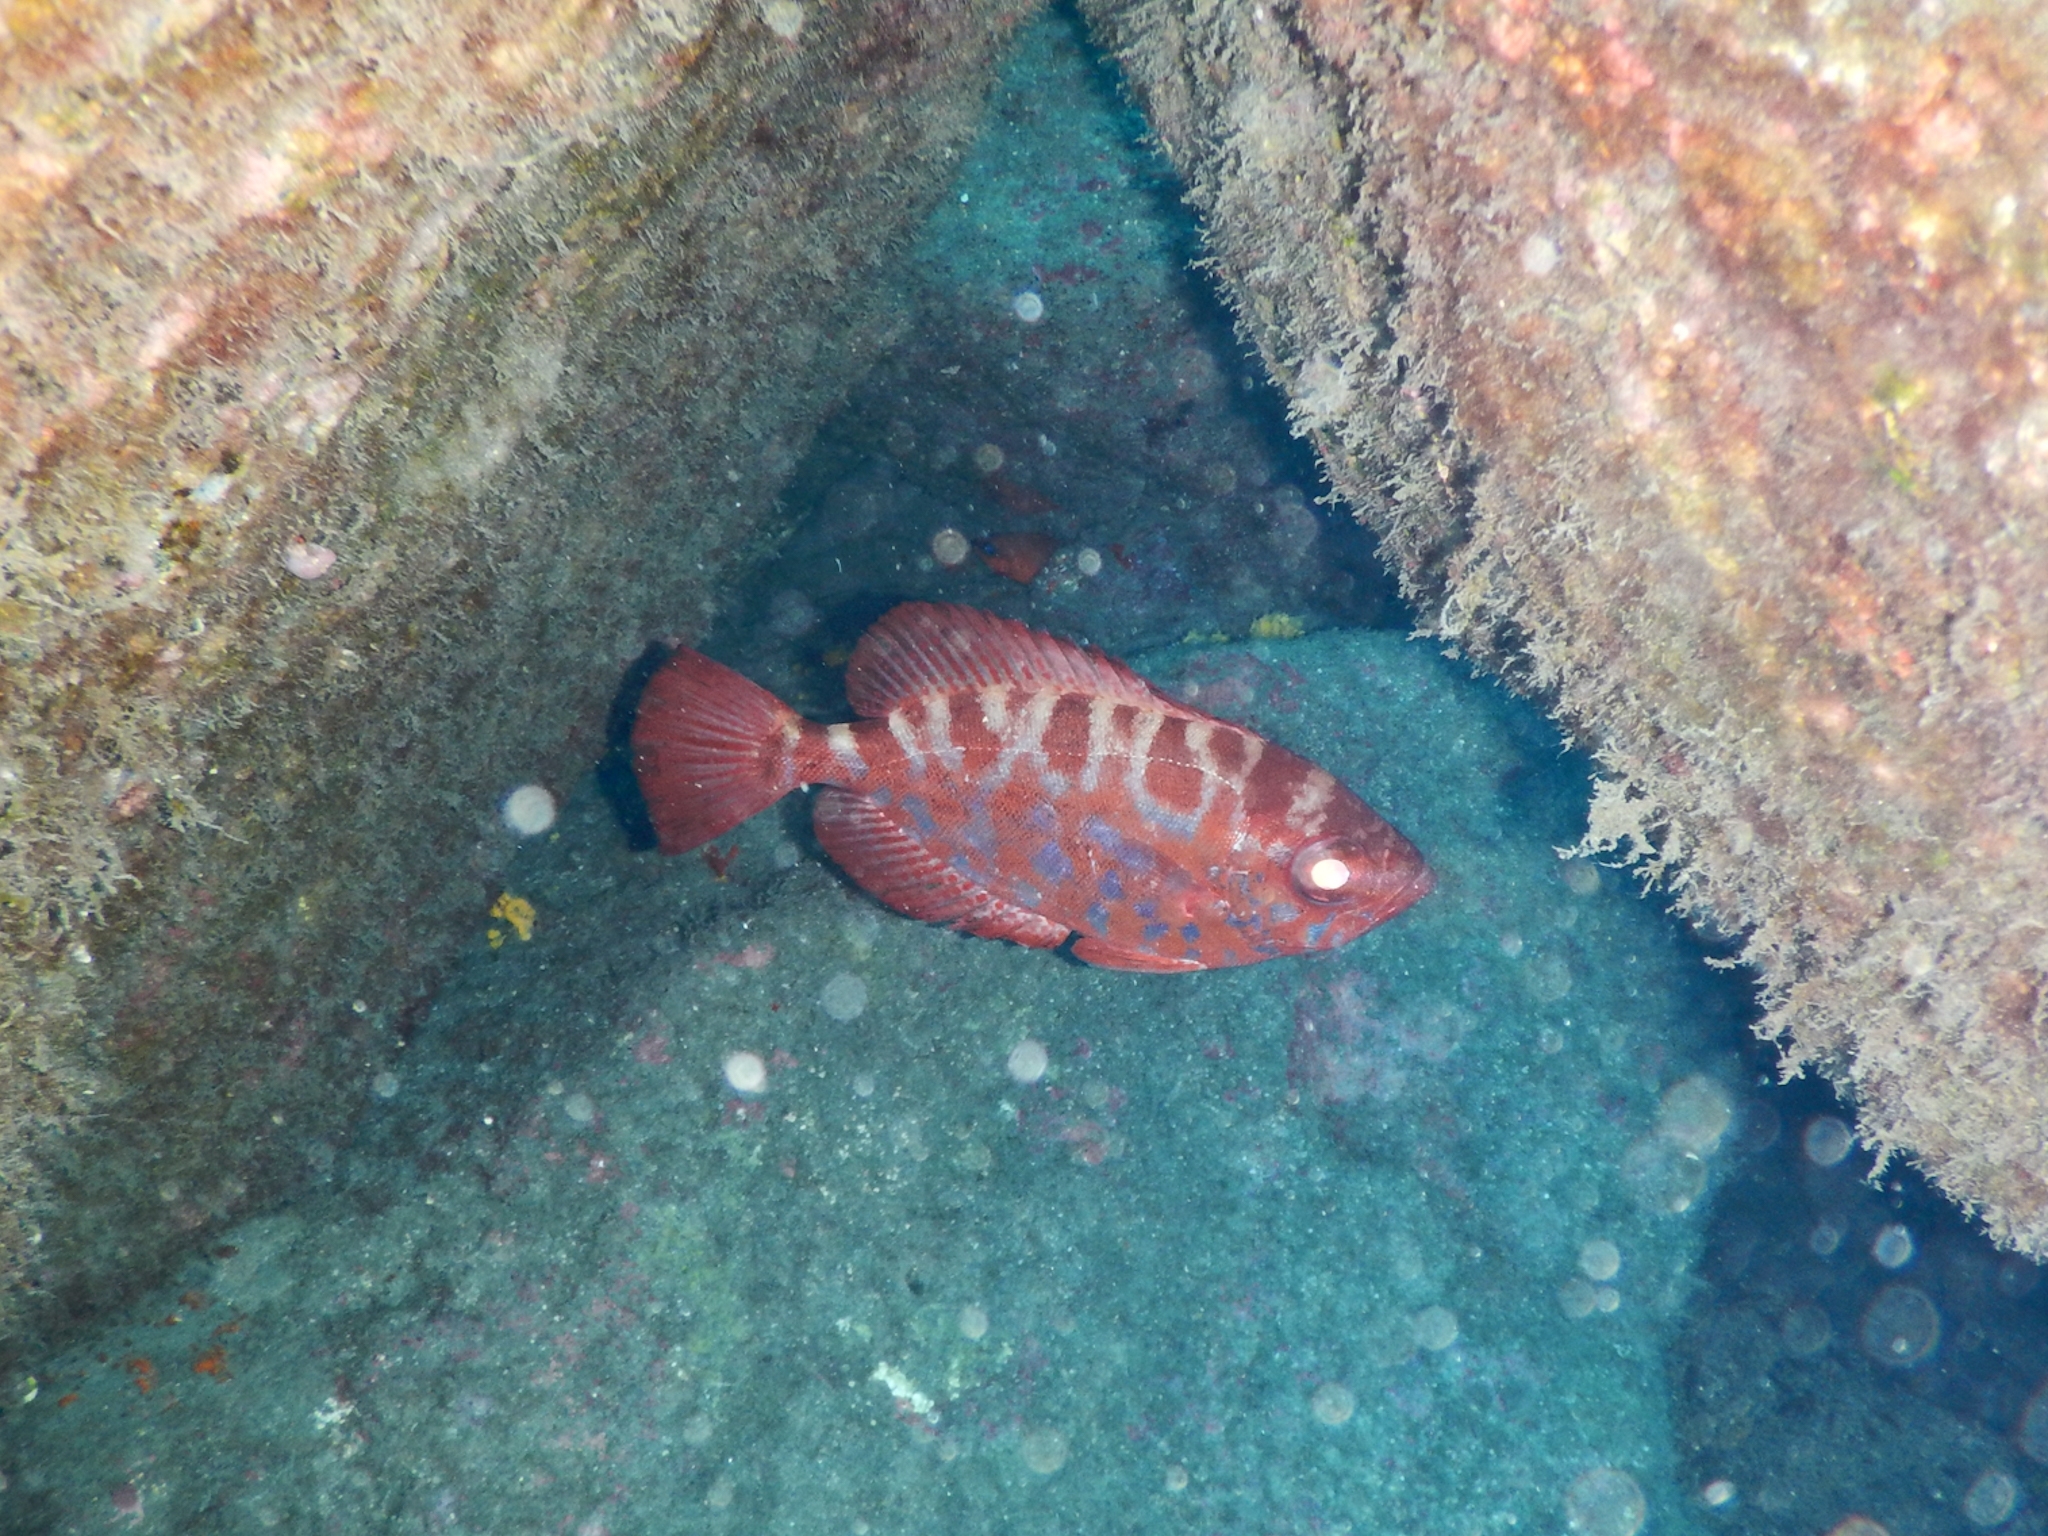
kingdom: Animalia
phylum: Chordata
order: Perciformes
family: Priacanthidae
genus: Heteropriacanthus
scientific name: Heteropriacanthus fulgens
